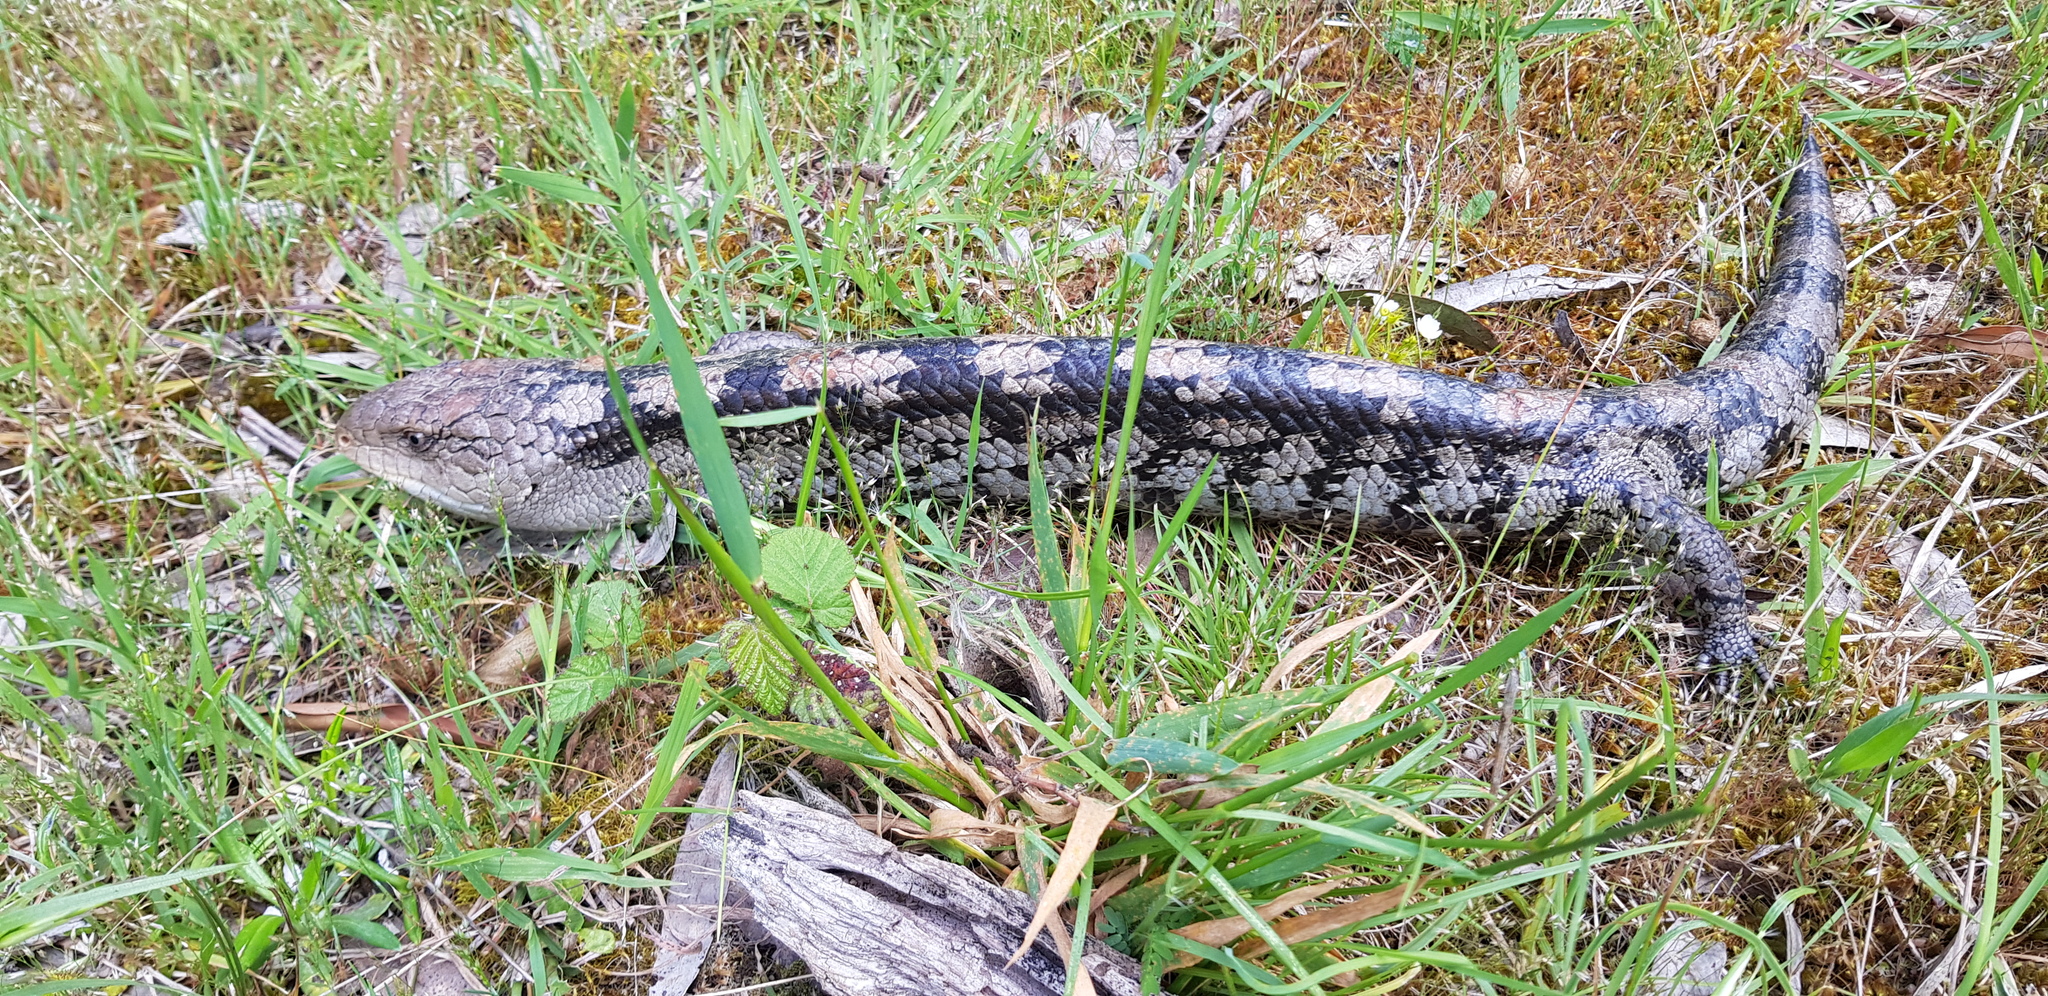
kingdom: Animalia
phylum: Chordata
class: Squamata
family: Scincidae
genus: Tiliqua
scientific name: Tiliqua nigrolutea
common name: Blotched blue-tongued lizard
